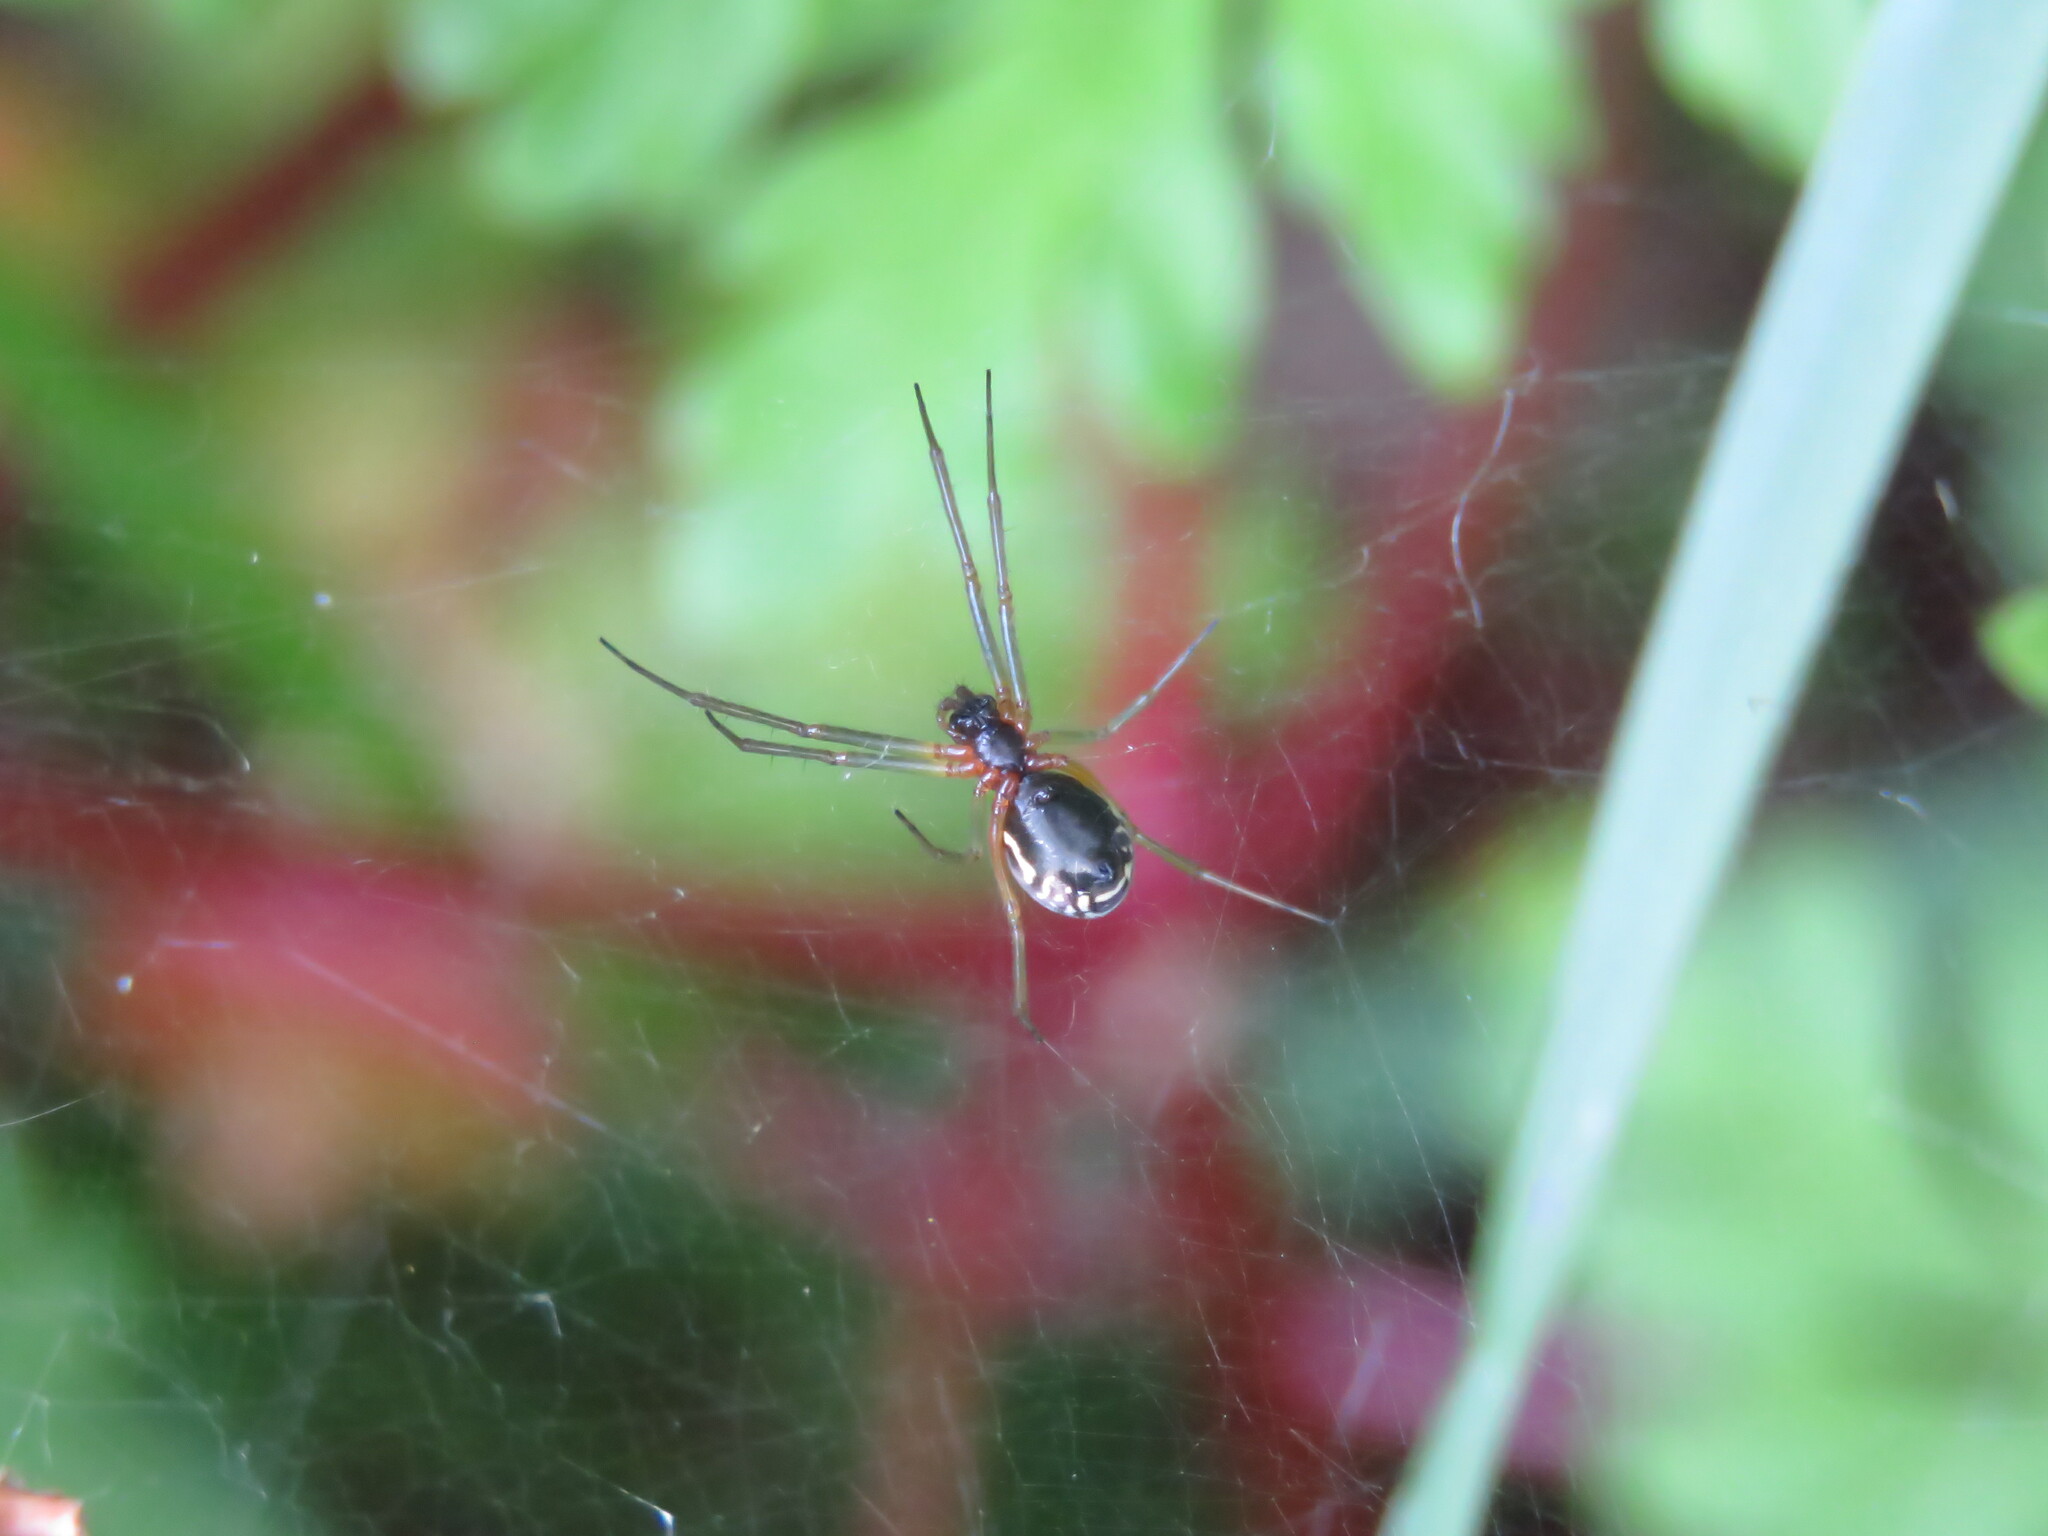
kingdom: Animalia
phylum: Arthropoda
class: Arachnida
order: Araneae
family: Linyphiidae
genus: Frontinellina
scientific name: Frontinellina frutetorum
